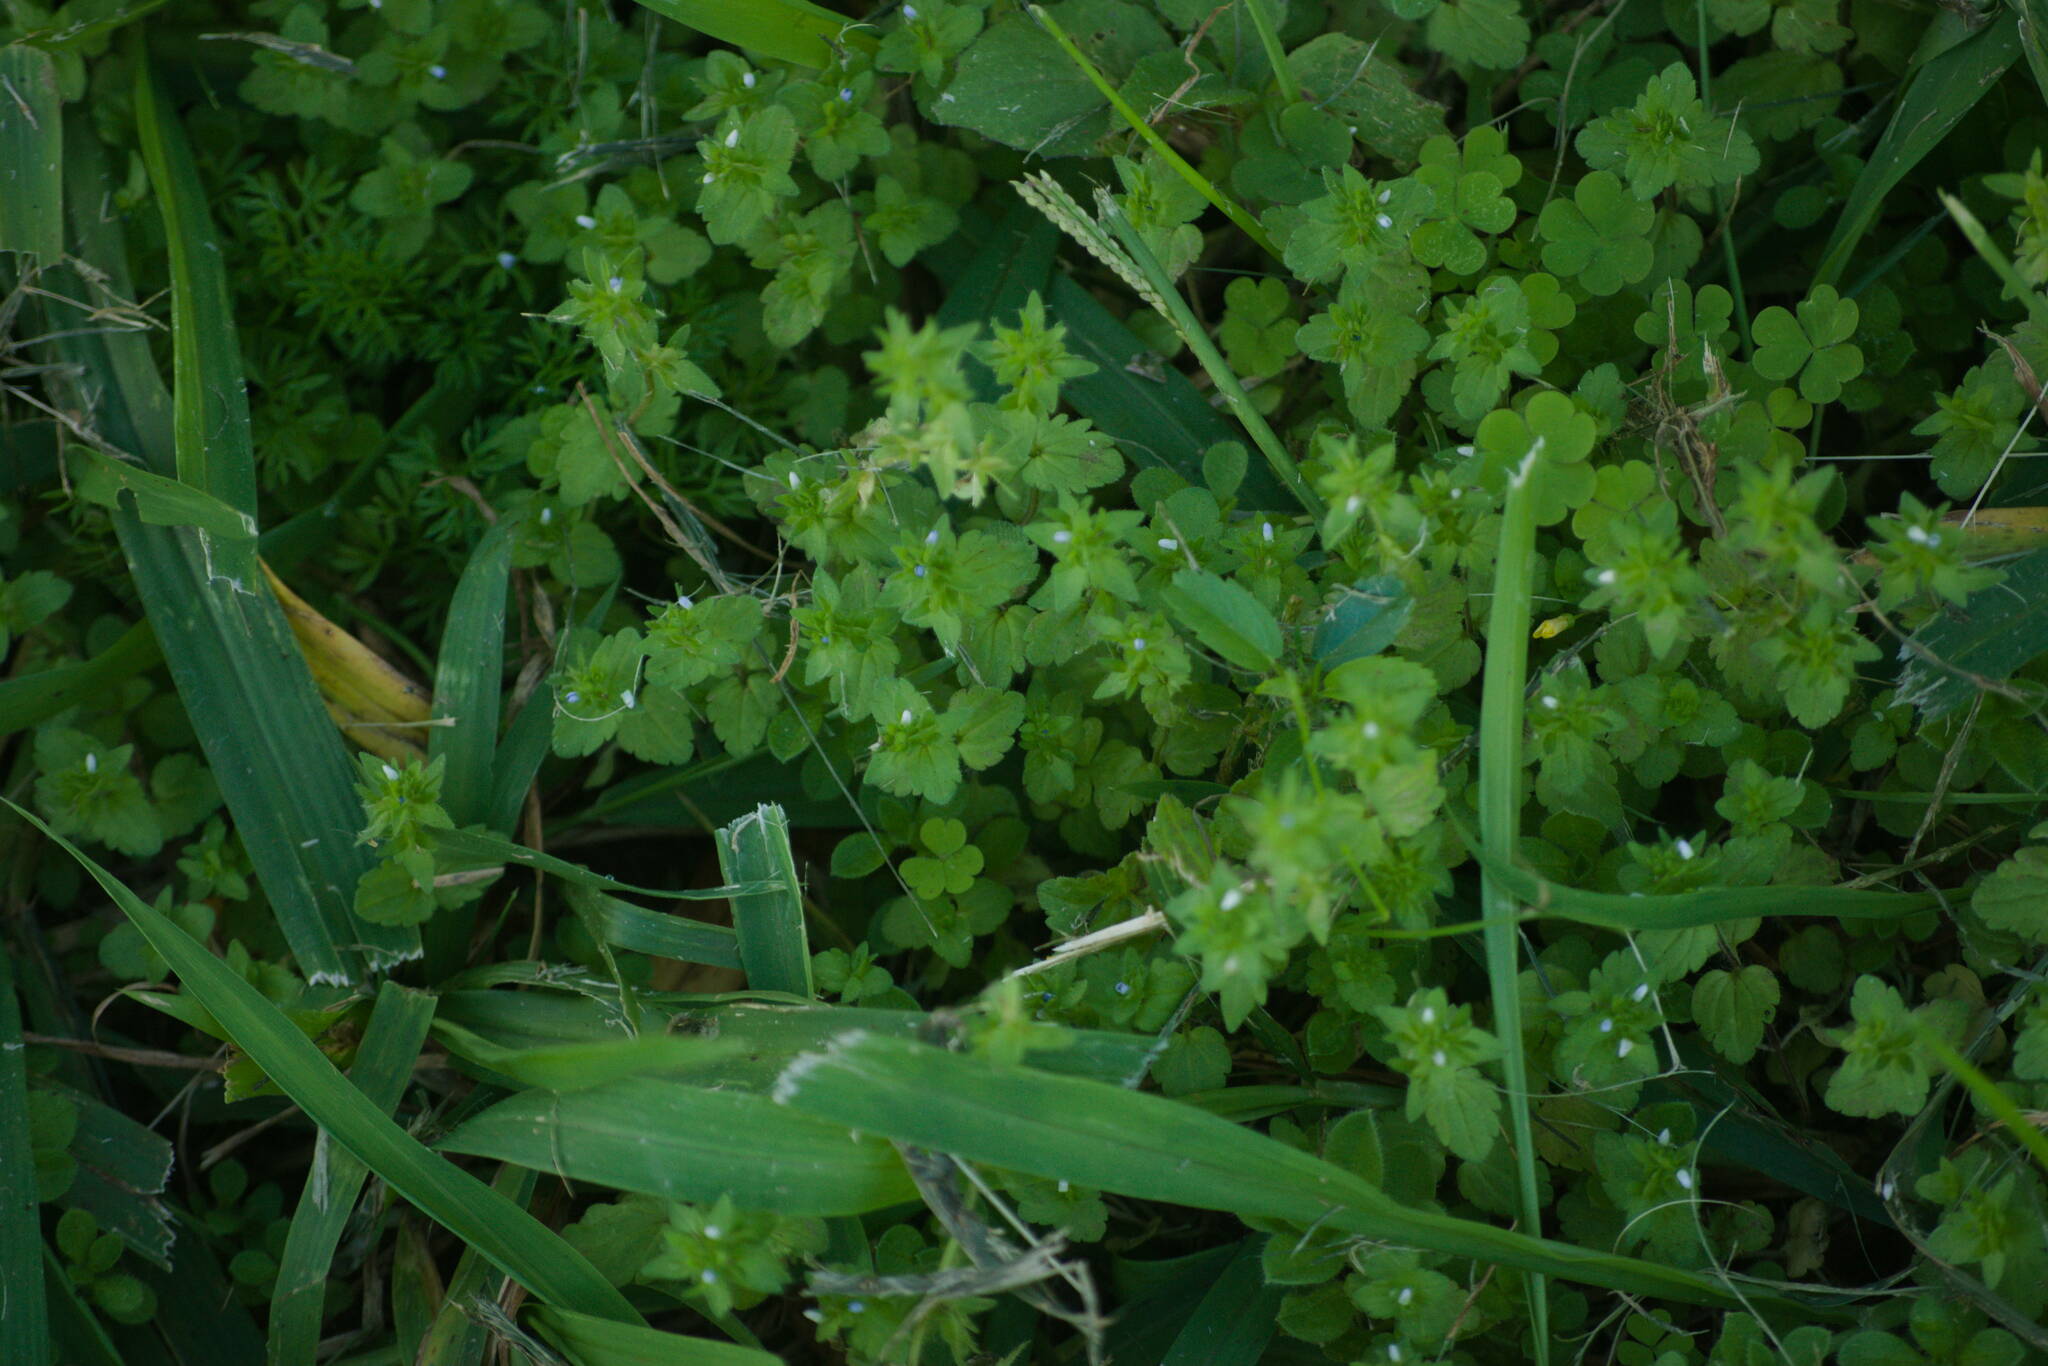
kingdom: Plantae
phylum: Tracheophyta
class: Magnoliopsida
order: Lamiales
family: Plantaginaceae
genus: Veronica
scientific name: Veronica arvensis
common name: Corn speedwell
